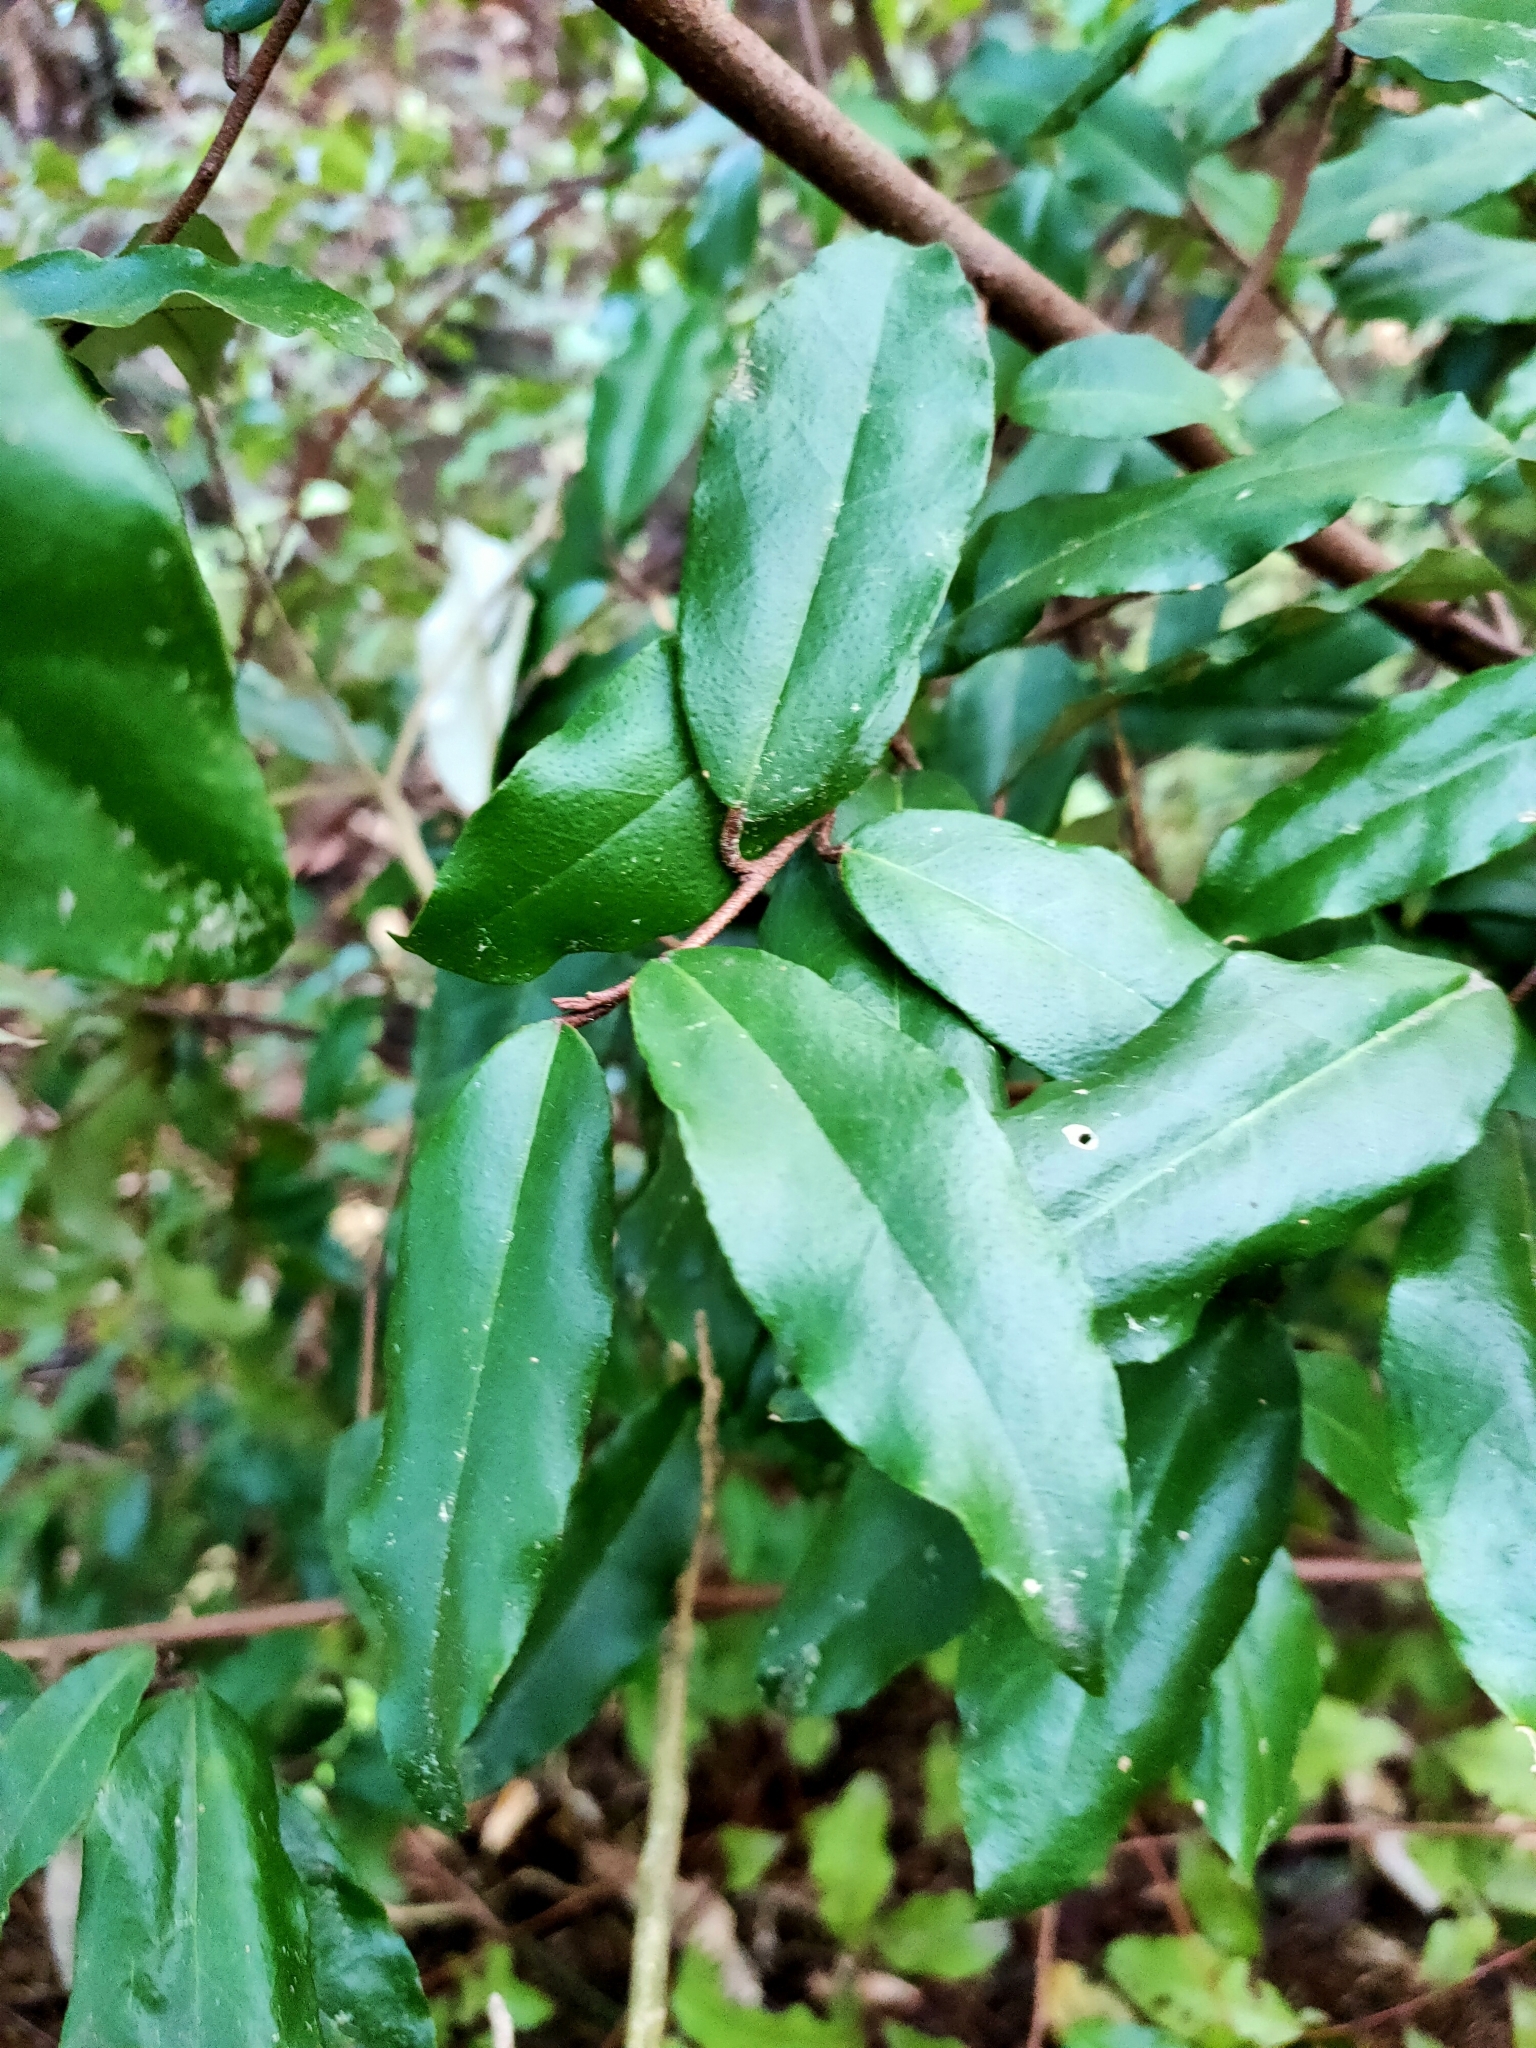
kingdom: Plantae
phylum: Tracheophyta
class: Magnoliopsida
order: Rosales
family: Elaeagnaceae
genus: Elaeagnus
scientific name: Elaeagnus reflexa
